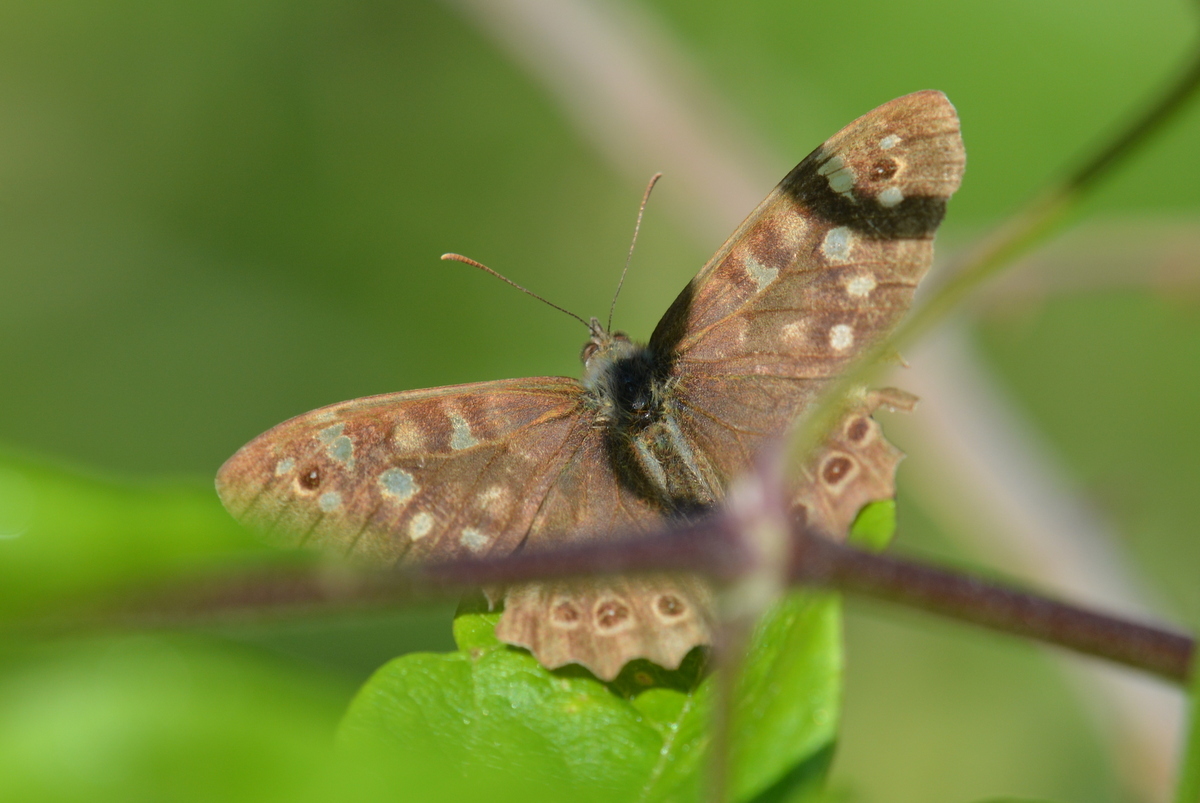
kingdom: Animalia
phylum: Arthropoda
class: Insecta
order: Lepidoptera
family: Nymphalidae
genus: Pararge
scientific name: Pararge aegeria
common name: Speckled wood
